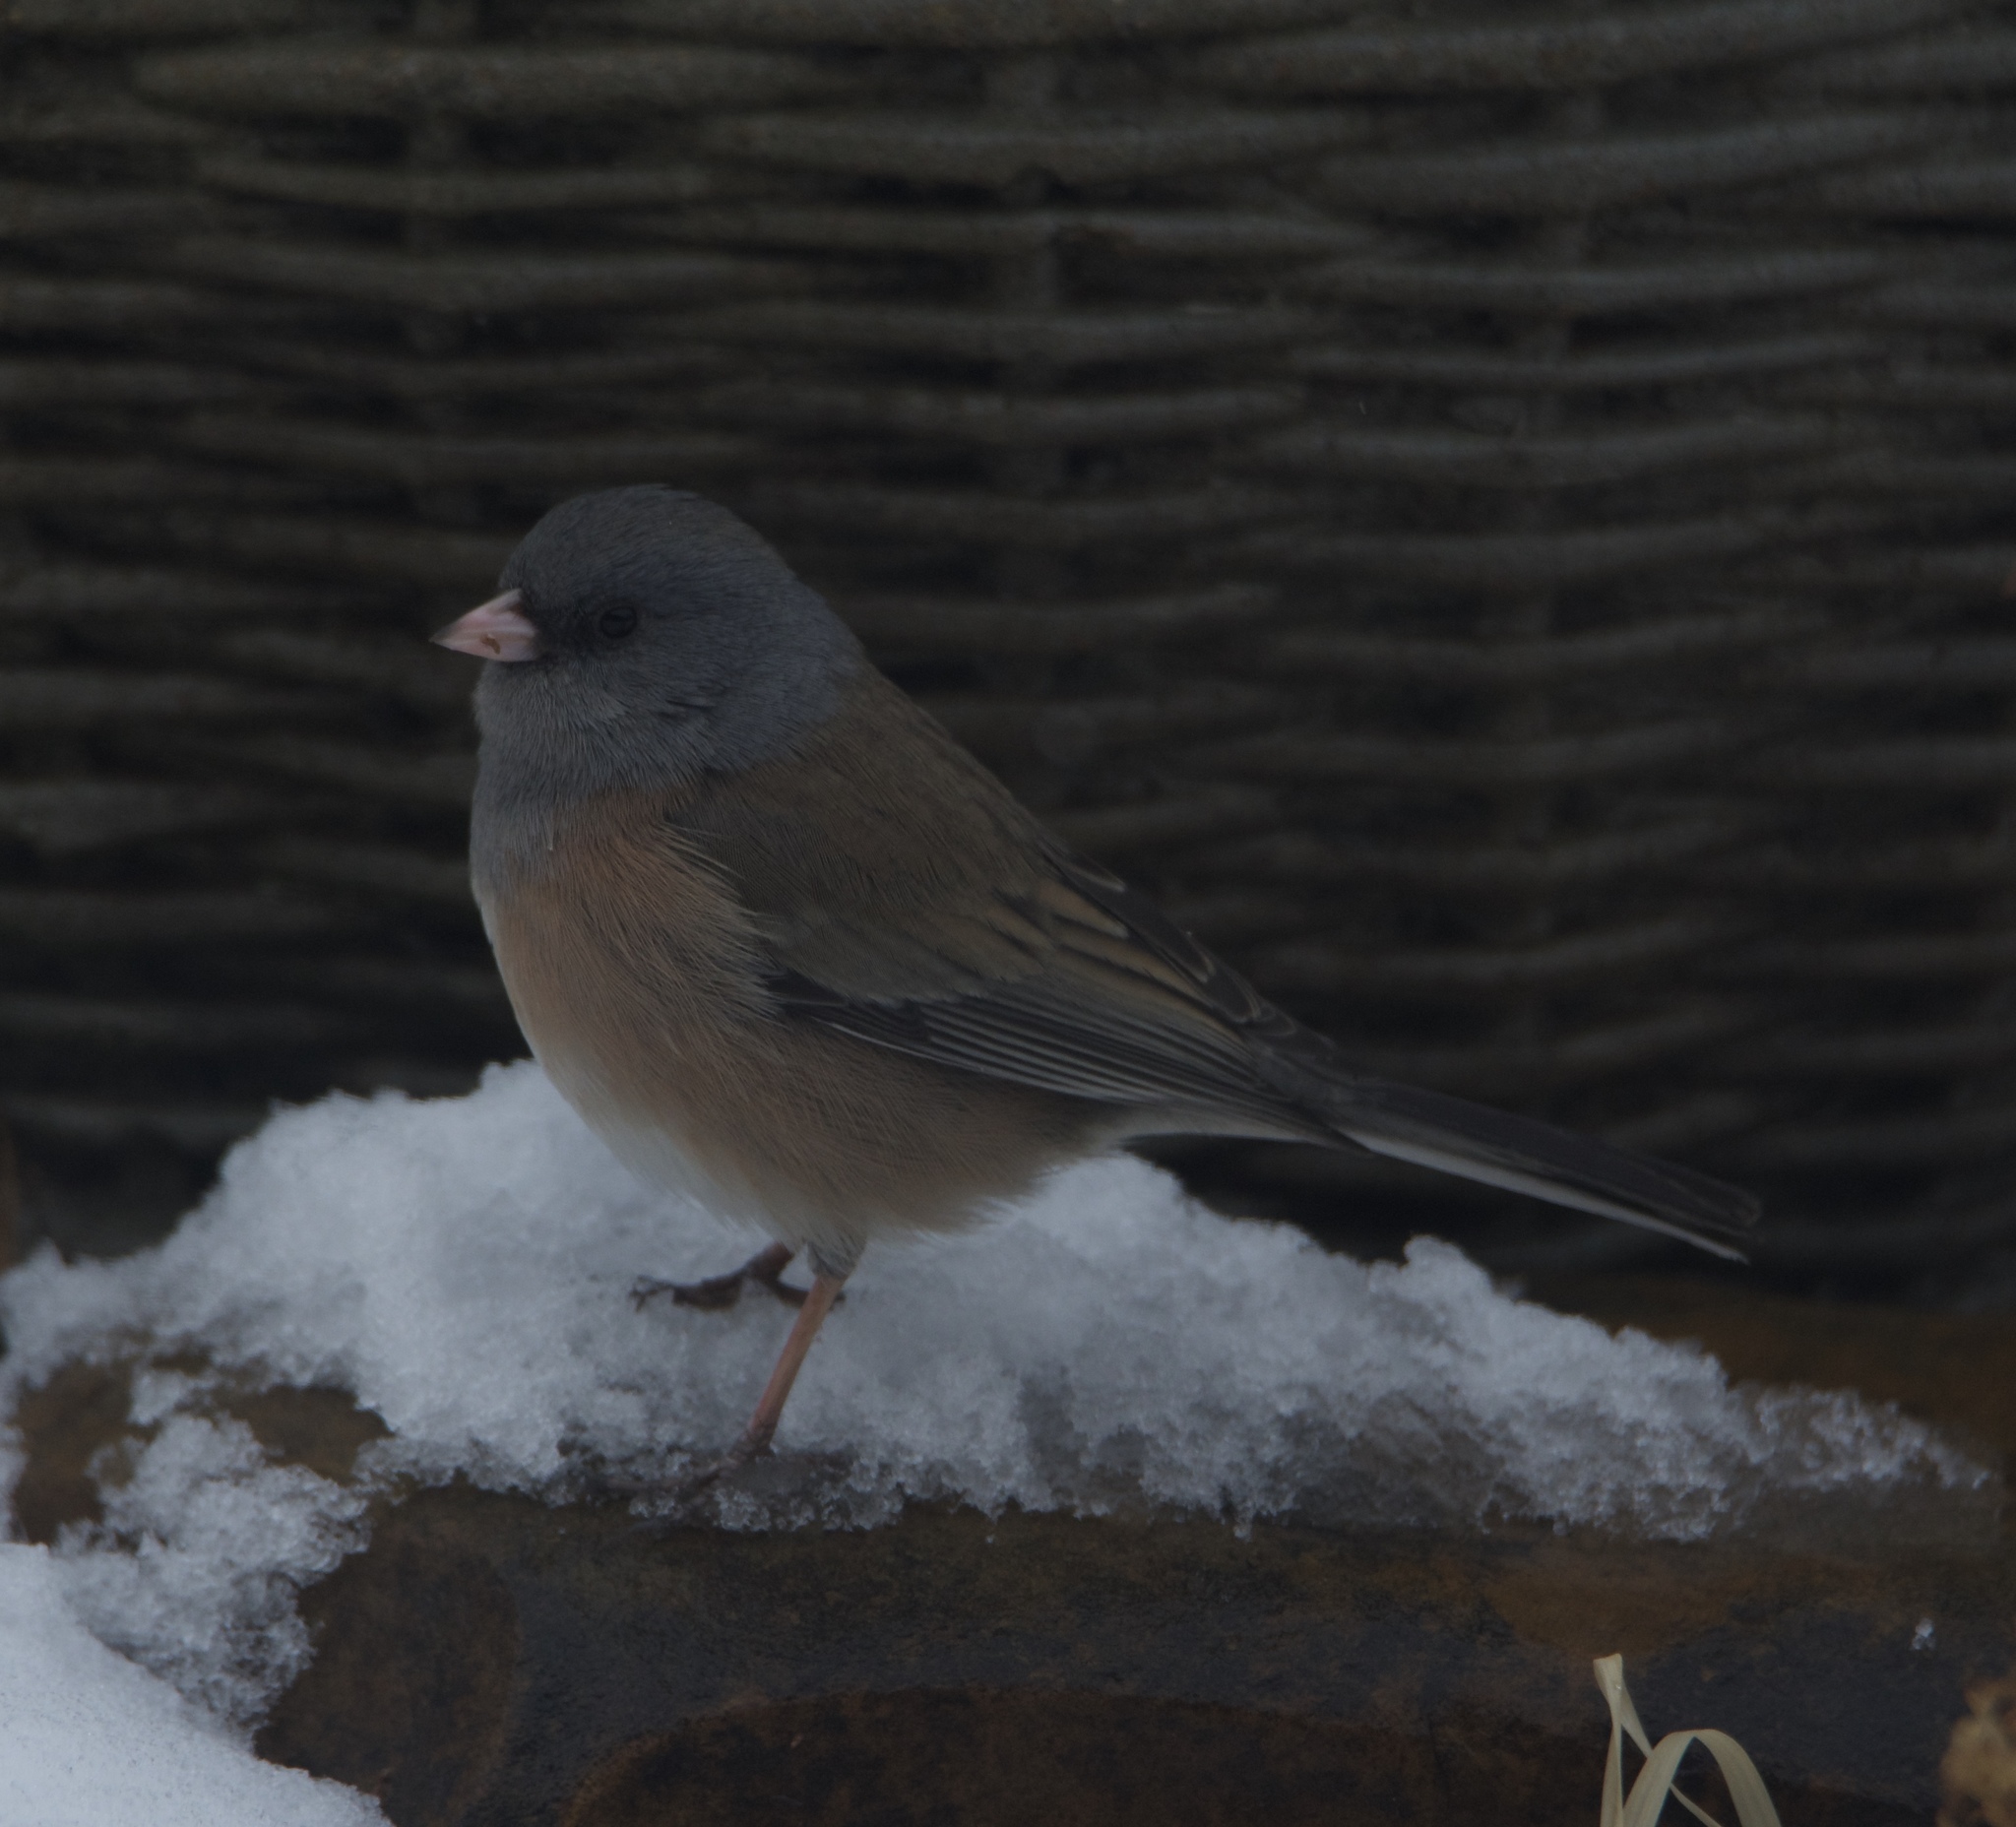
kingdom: Animalia
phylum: Chordata
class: Aves
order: Passeriformes
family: Passerellidae
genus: Junco
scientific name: Junco hyemalis
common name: Dark-eyed junco
